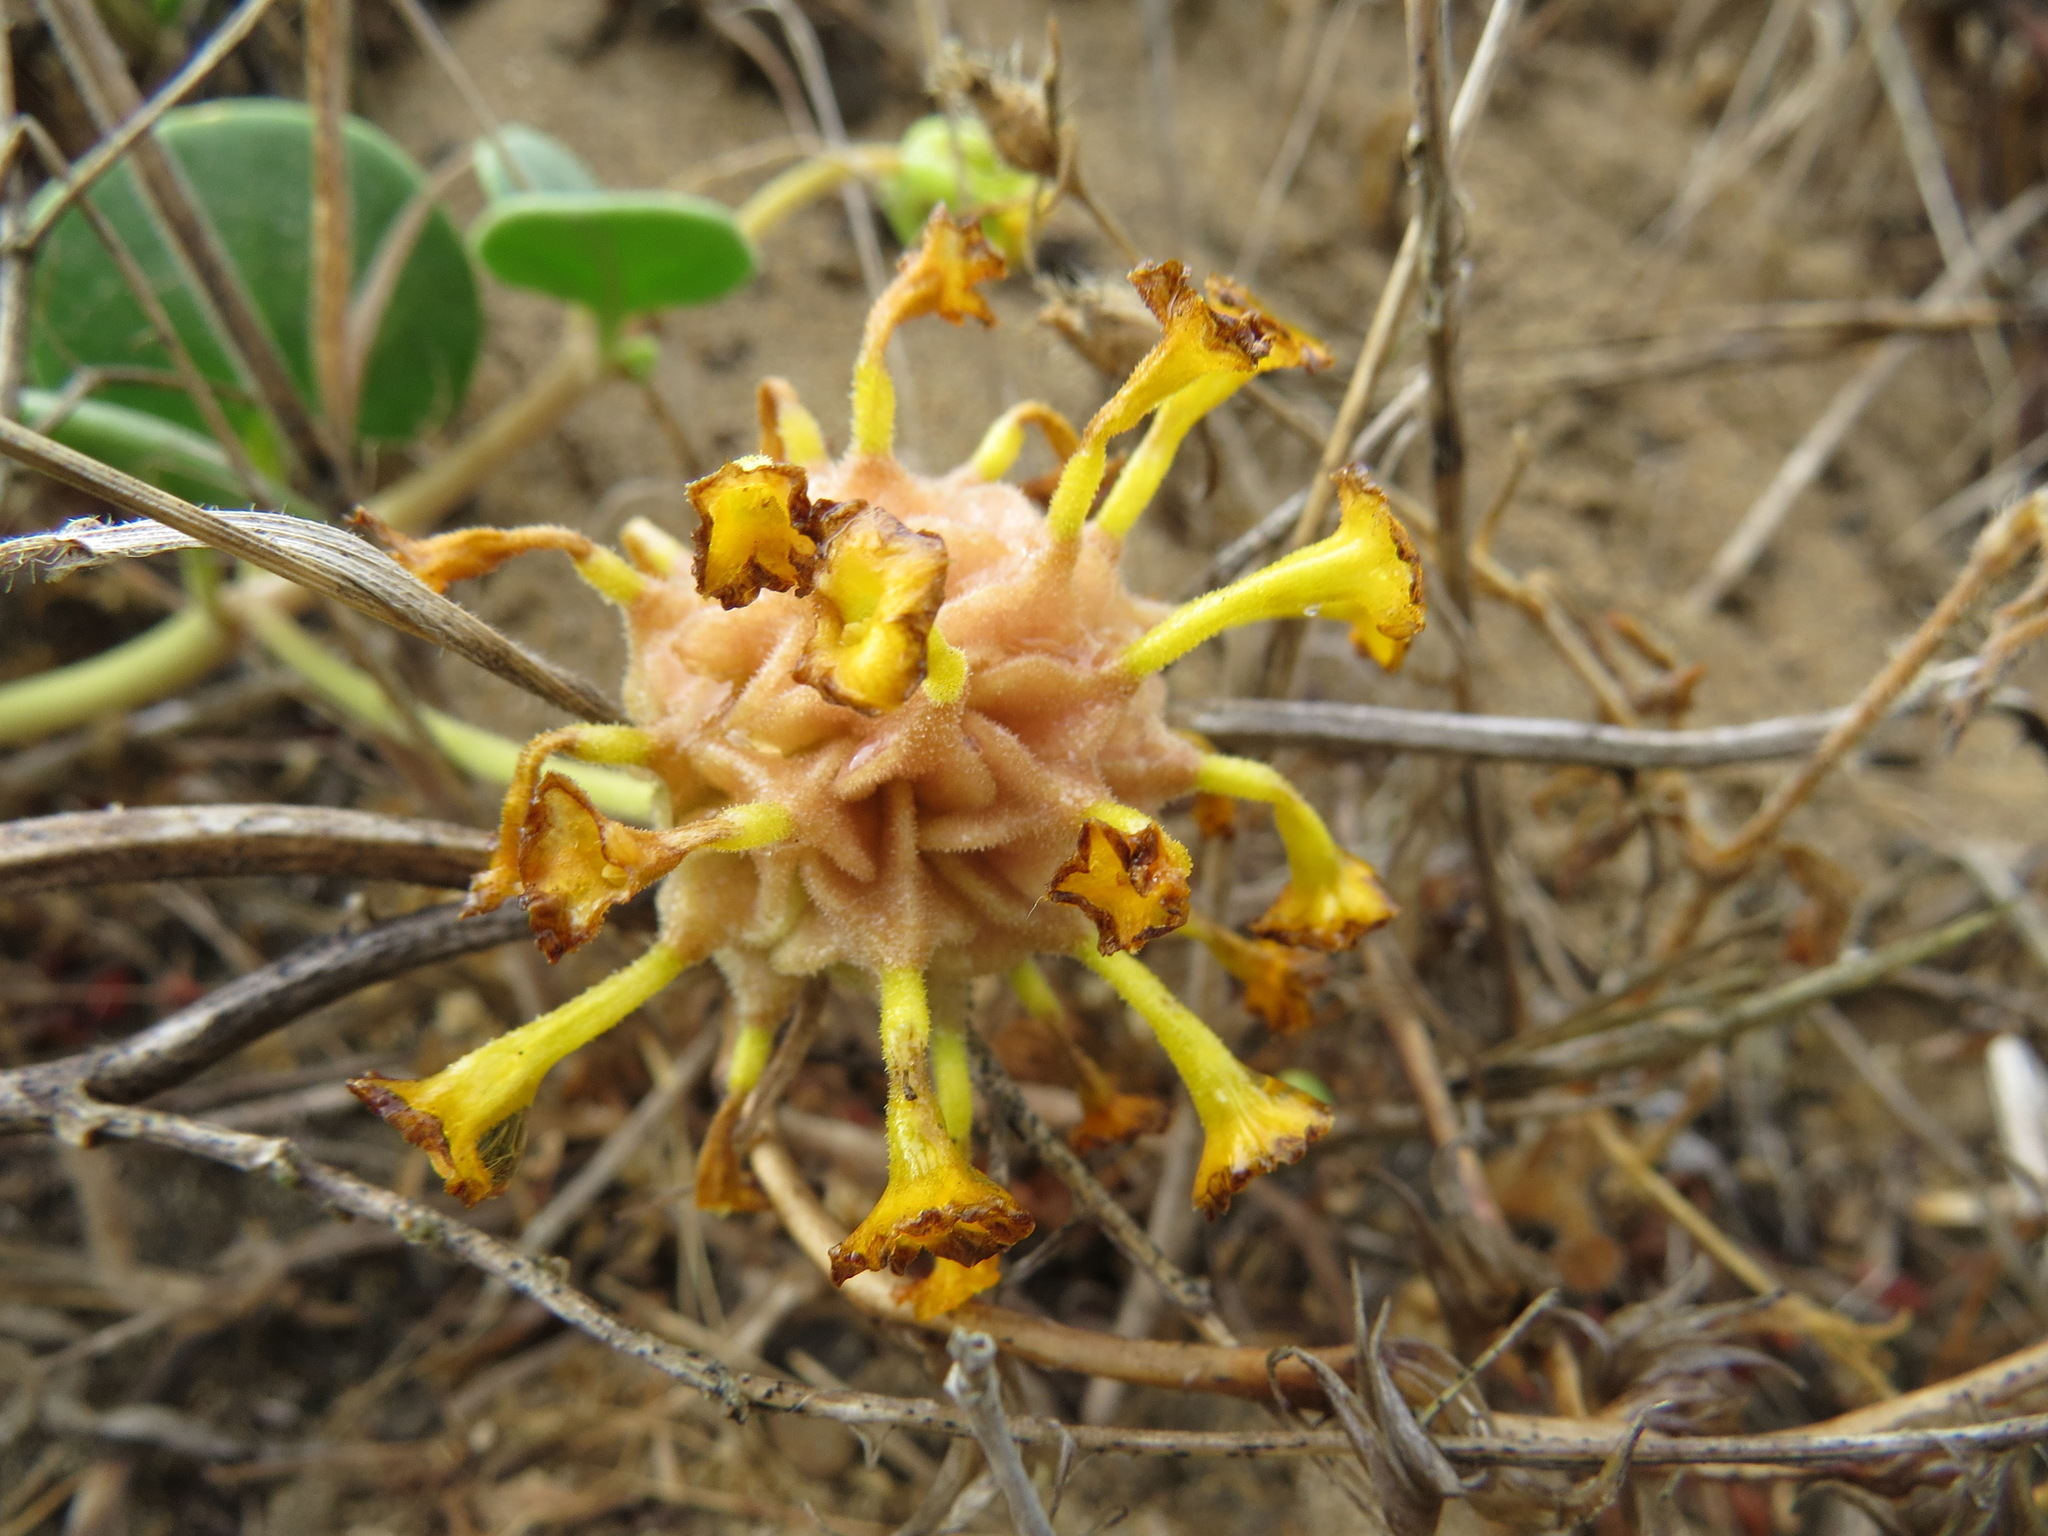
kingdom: Plantae
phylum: Tracheophyta
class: Magnoliopsida
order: Caryophyllales
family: Nyctaginaceae
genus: Abronia
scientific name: Abronia latifolia
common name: Yellow sand-verbena
